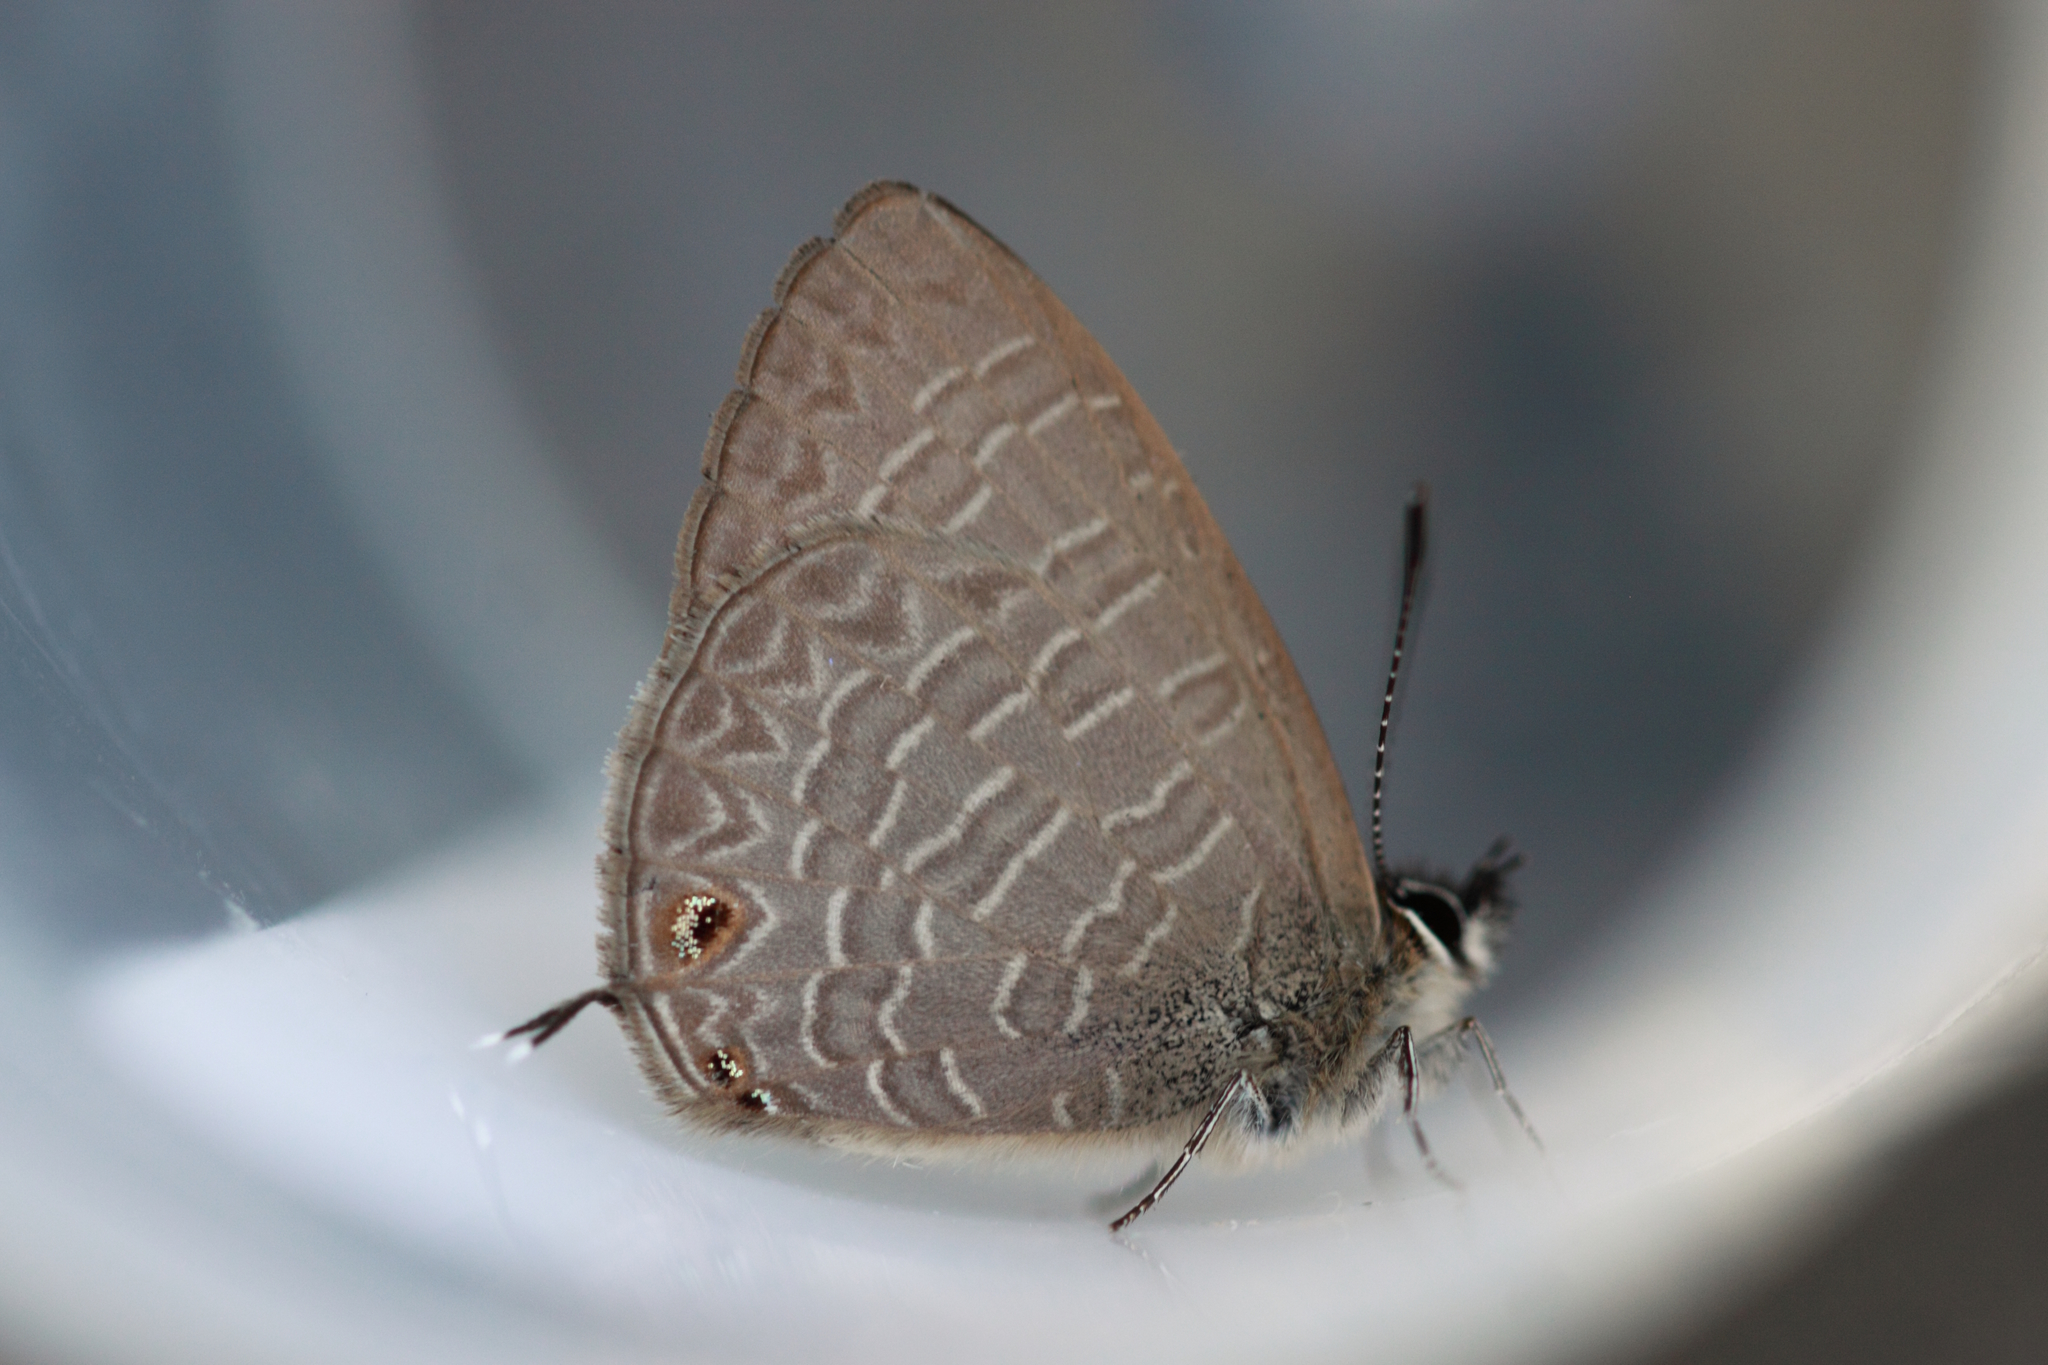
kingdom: Animalia
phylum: Arthropoda
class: Insecta
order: Lepidoptera
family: Lycaenidae
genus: Nacaduba
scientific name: Nacaduba berenice
